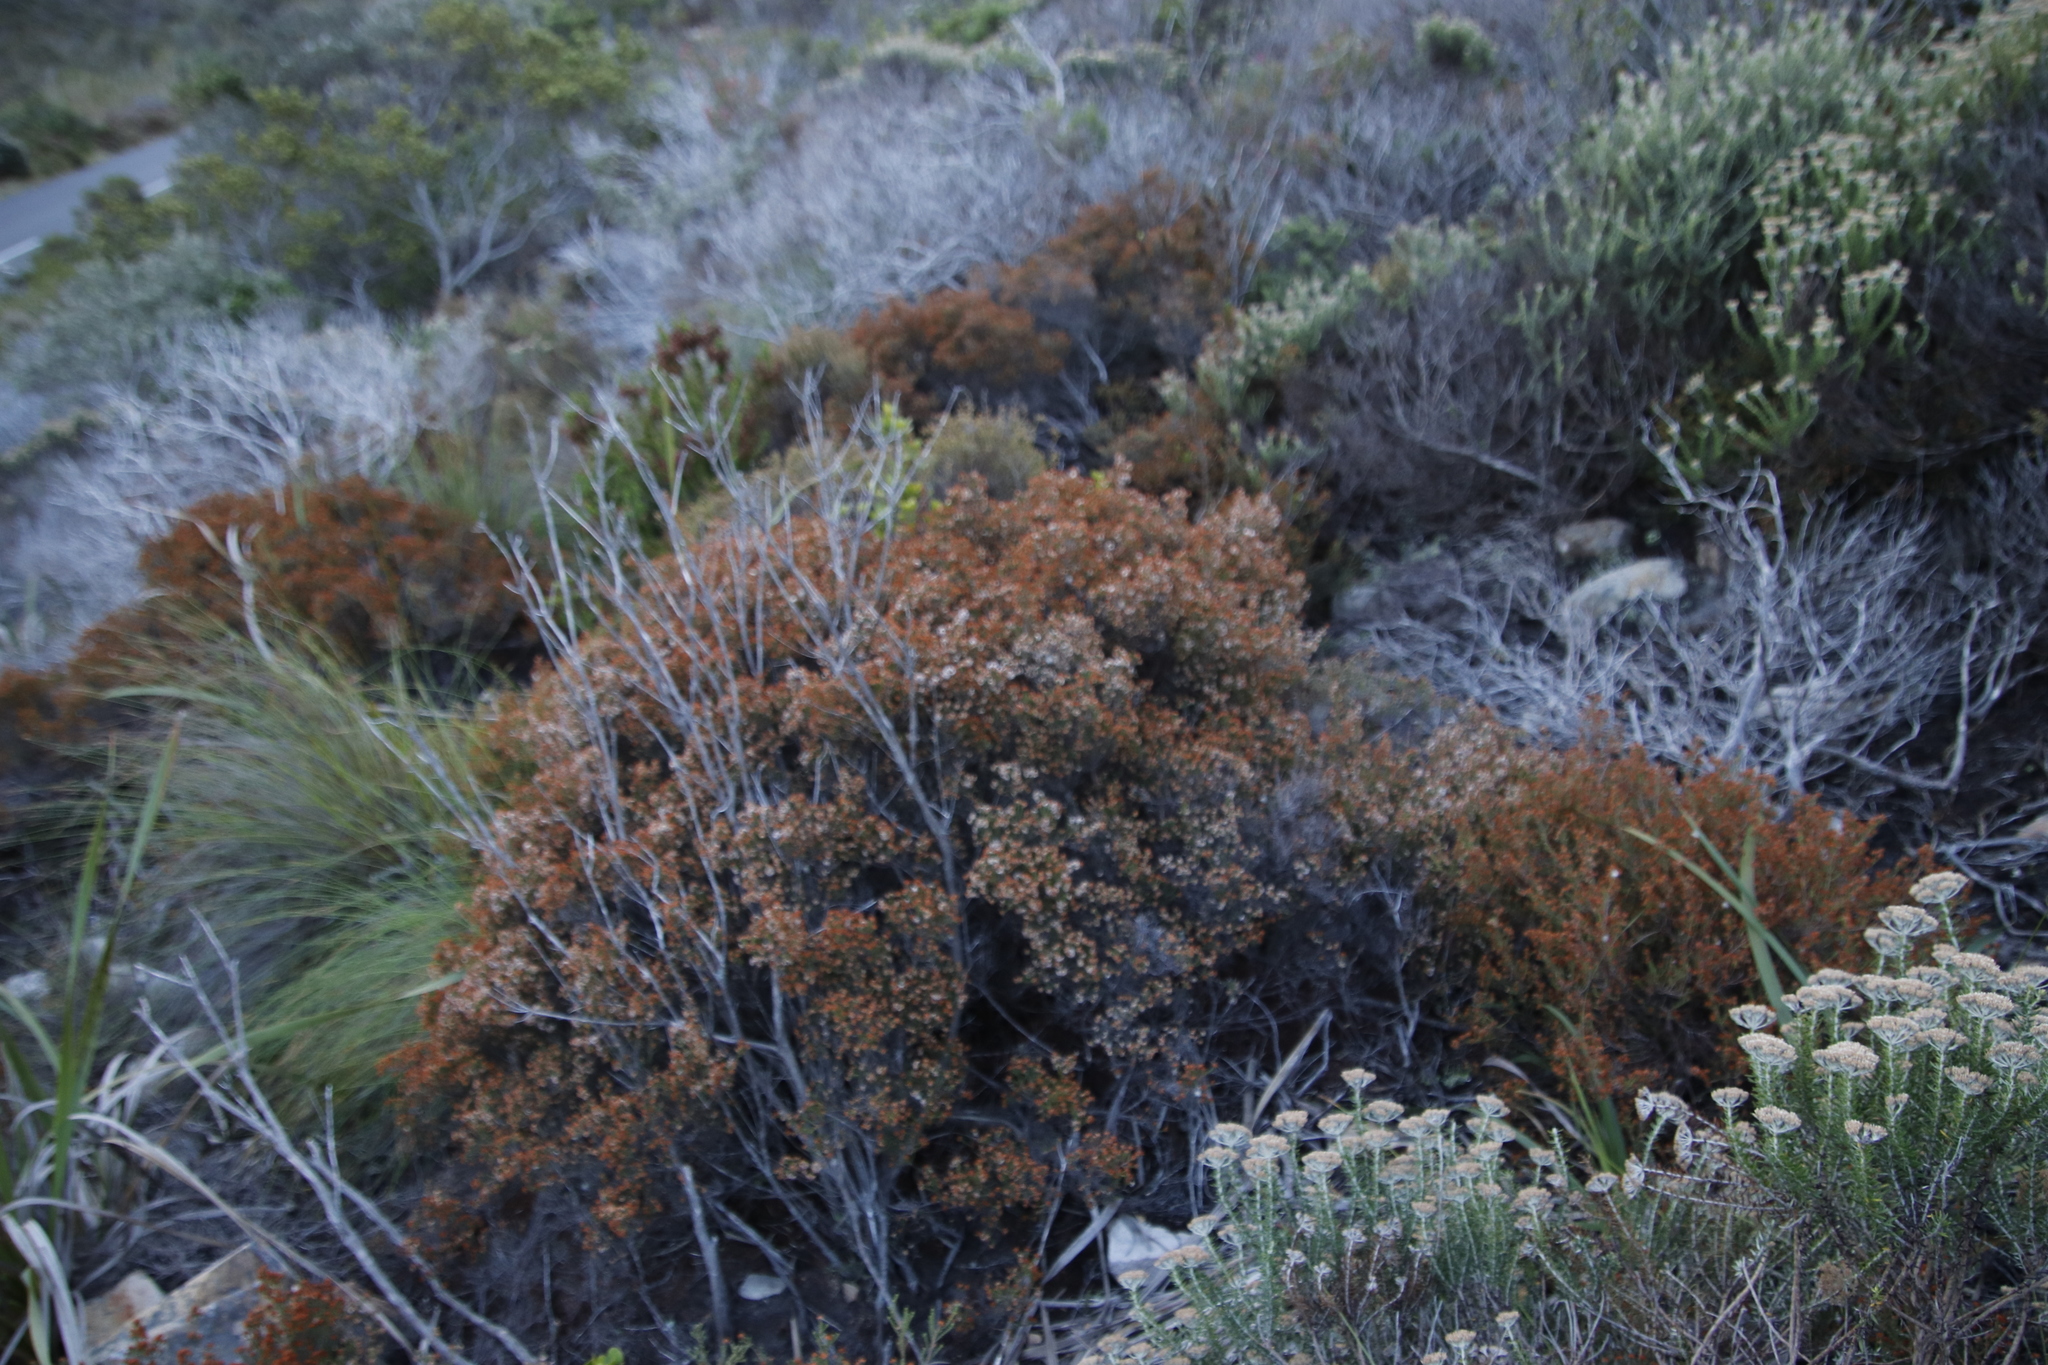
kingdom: Plantae
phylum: Tracheophyta
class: Magnoliopsida
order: Ericales
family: Ericaceae
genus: Erica
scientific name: Erica ericoides
